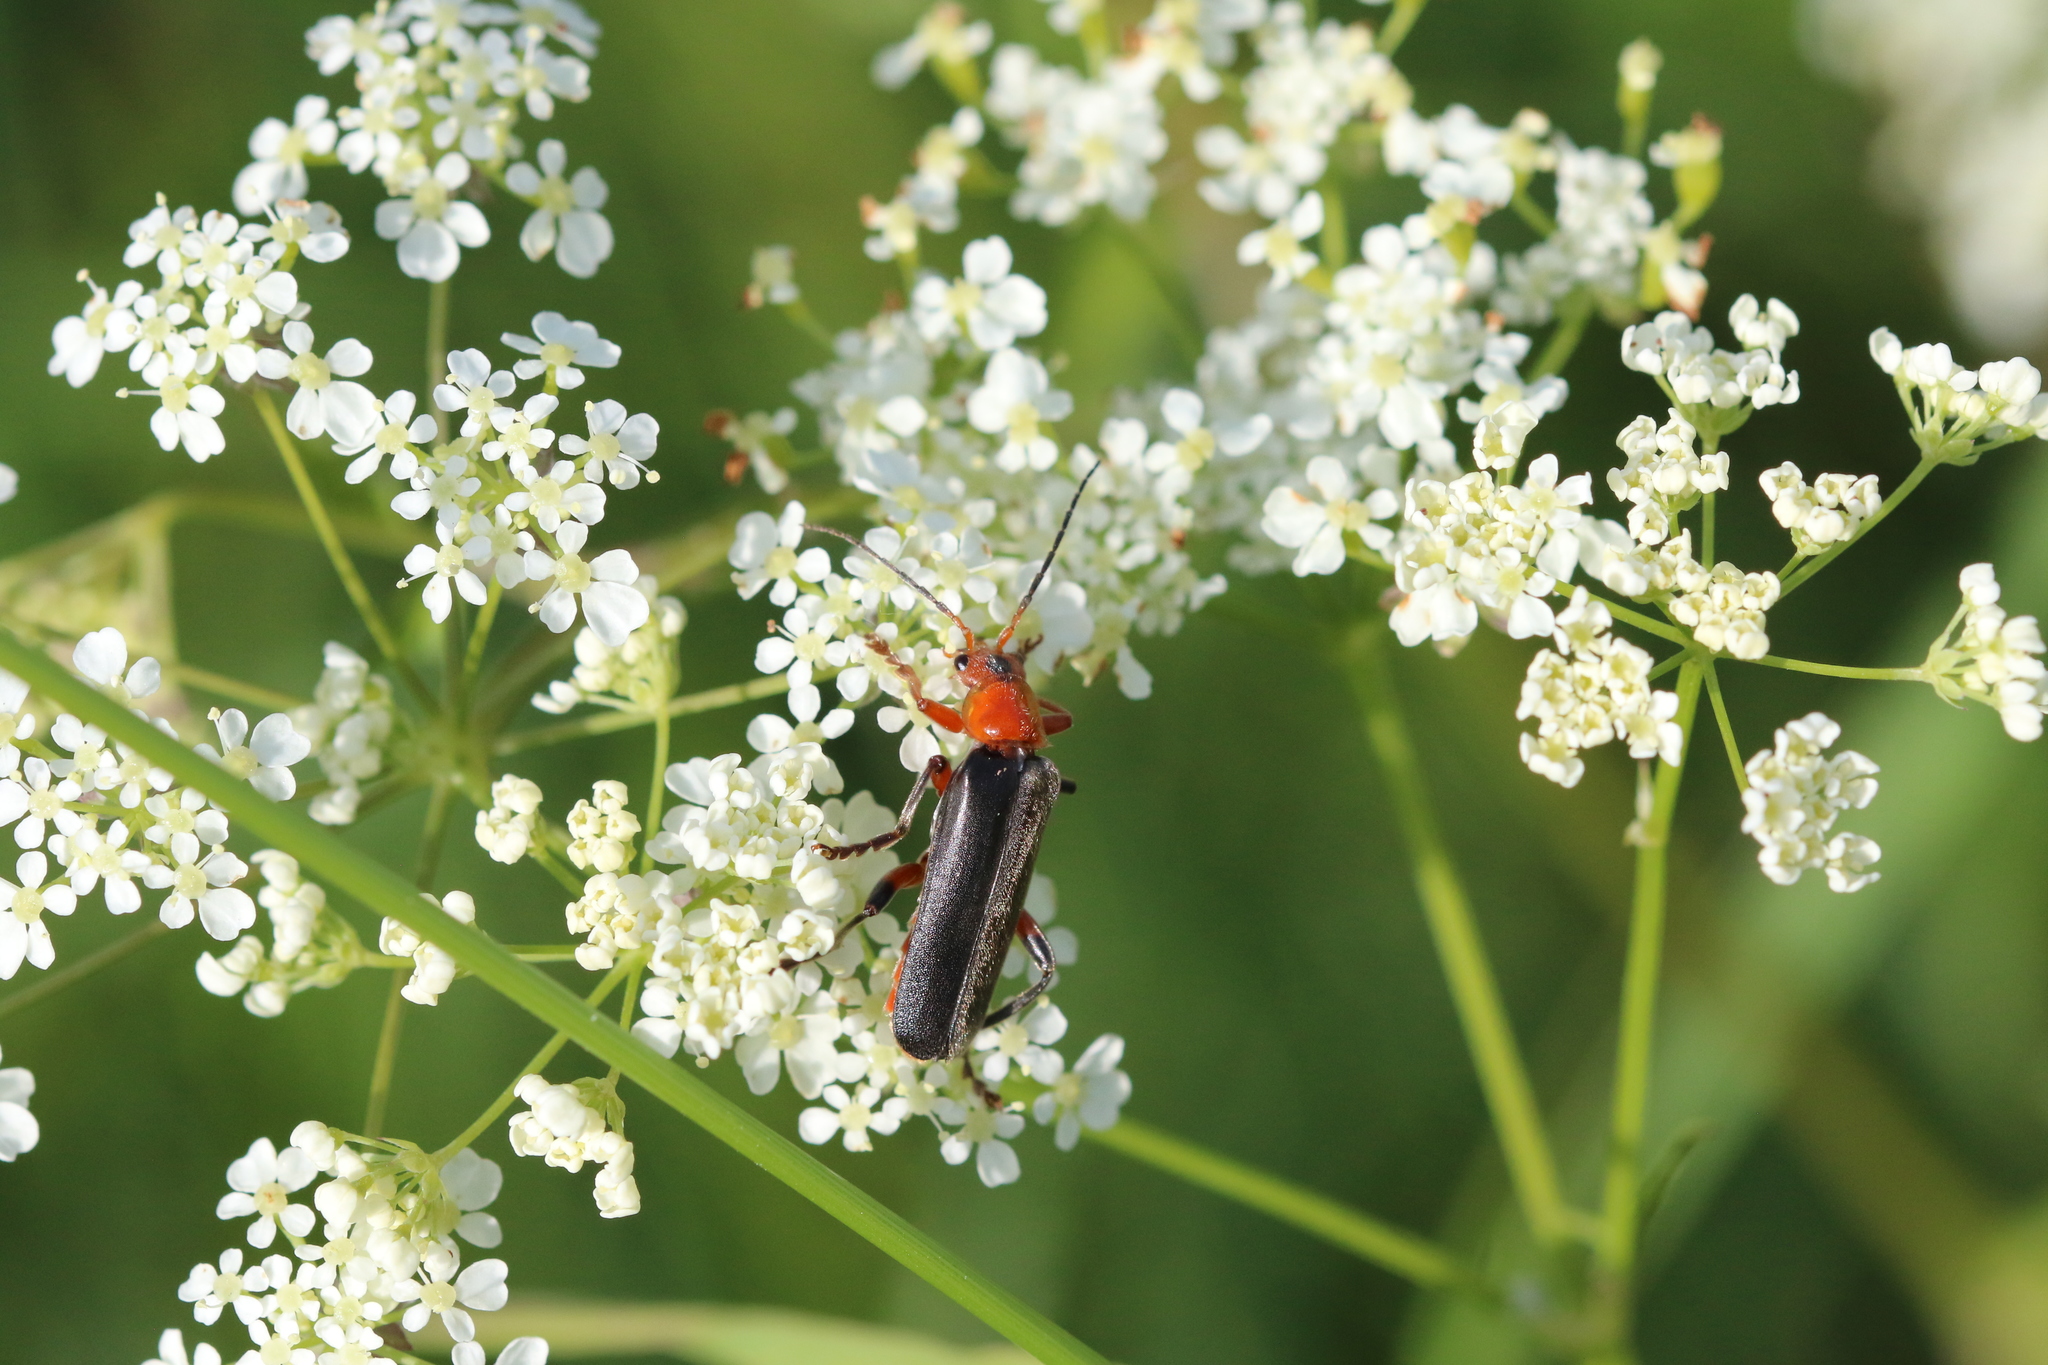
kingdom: Animalia
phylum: Arthropoda
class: Insecta
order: Coleoptera
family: Cantharidae
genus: Cantharis
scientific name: Cantharis livida
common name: Livid soldier beetle
